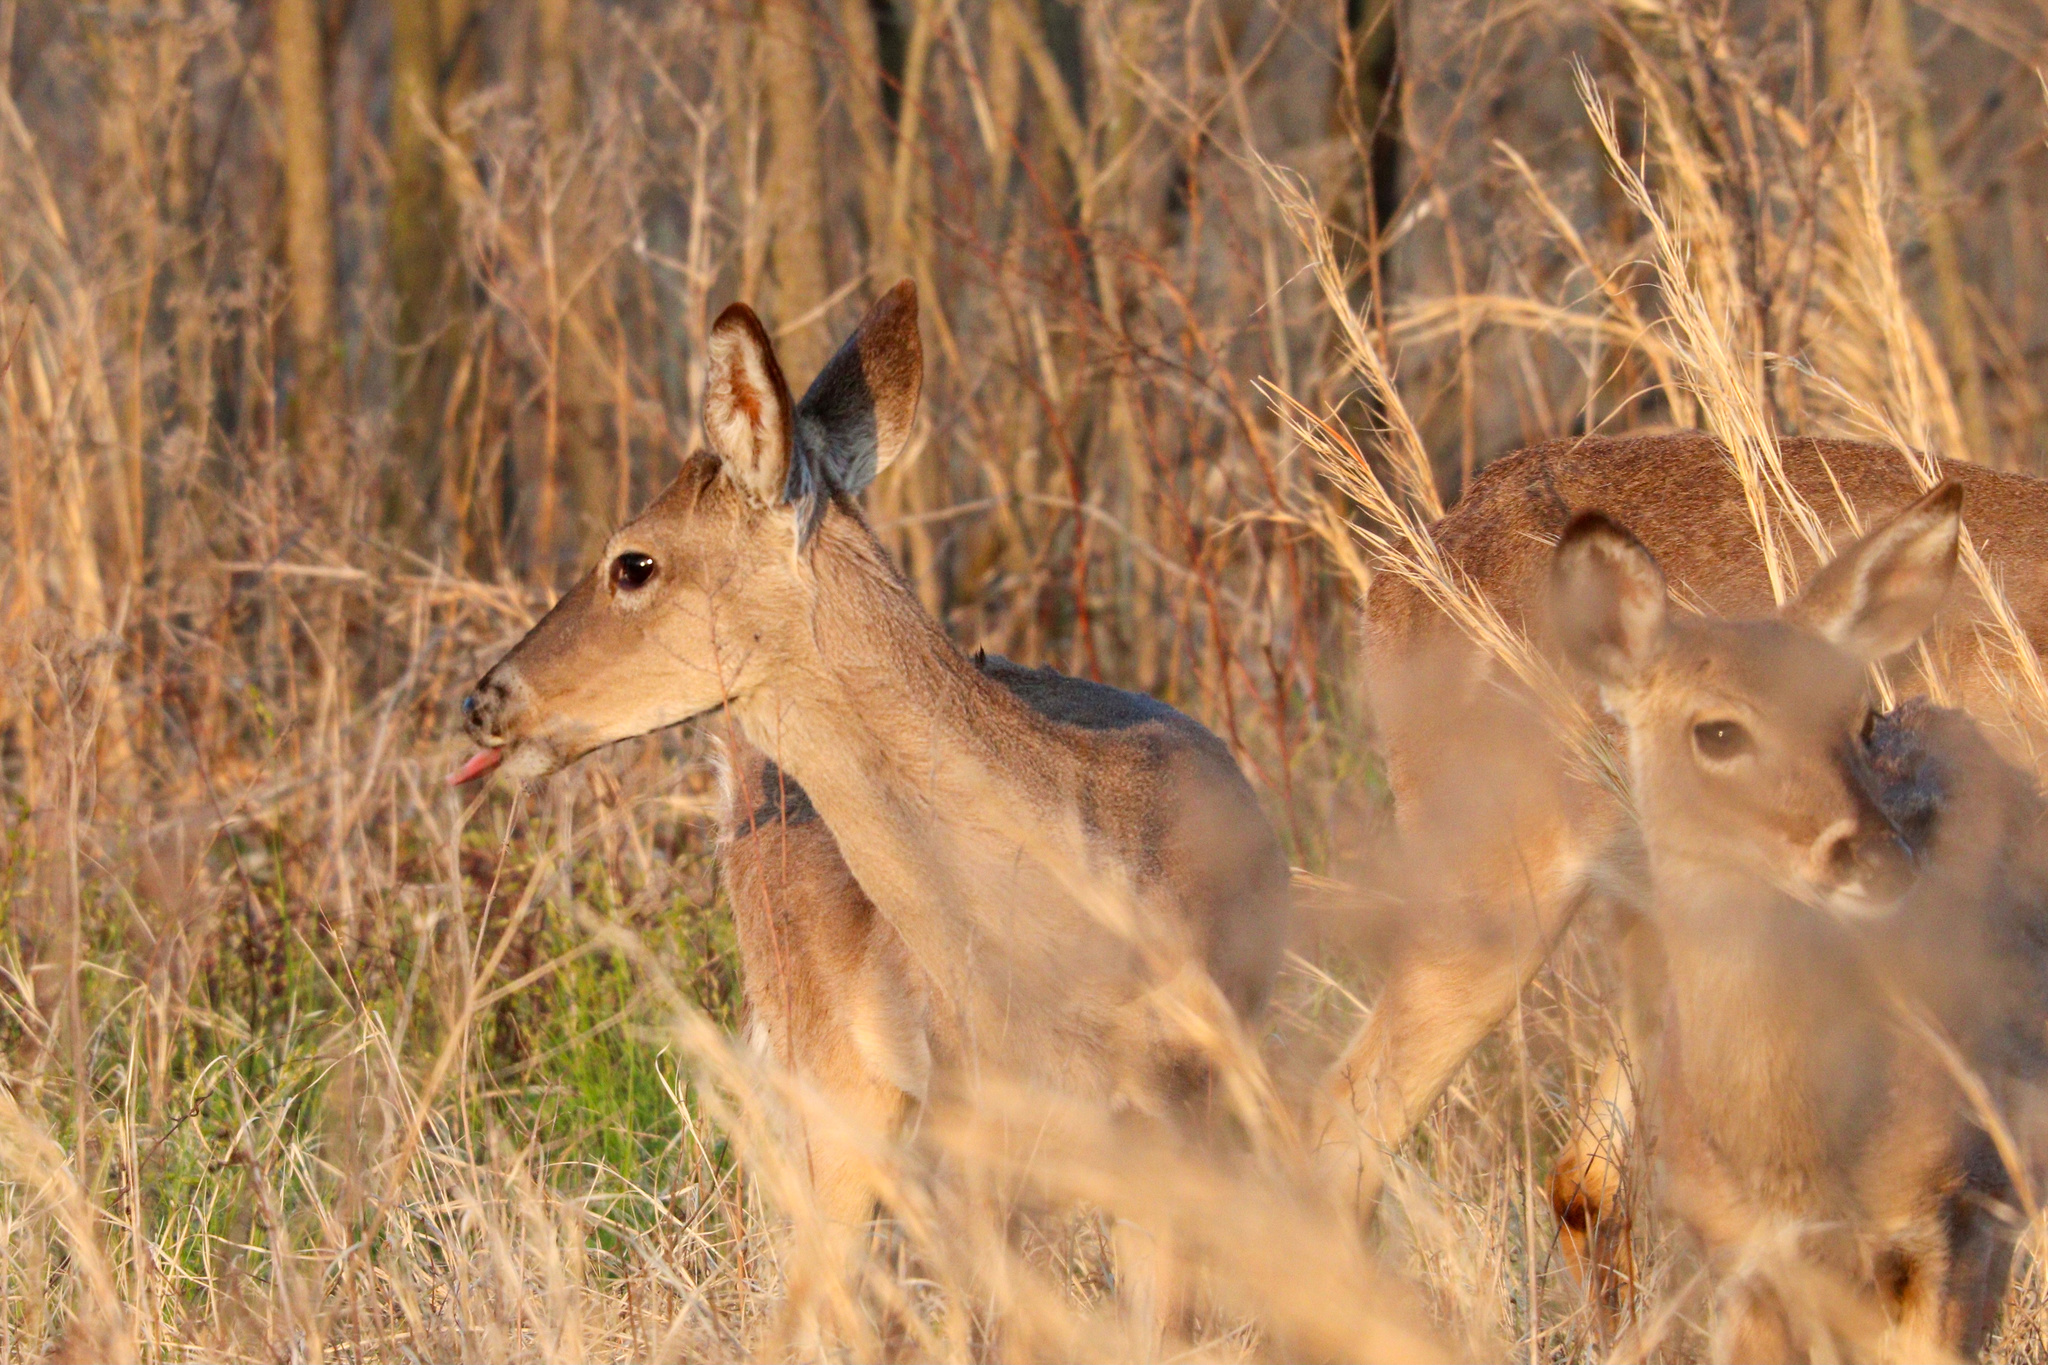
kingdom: Animalia
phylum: Chordata
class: Mammalia
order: Artiodactyla
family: Cervidae
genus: Odocoileus
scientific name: Odocoileus virginianus
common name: White-tailed deer
